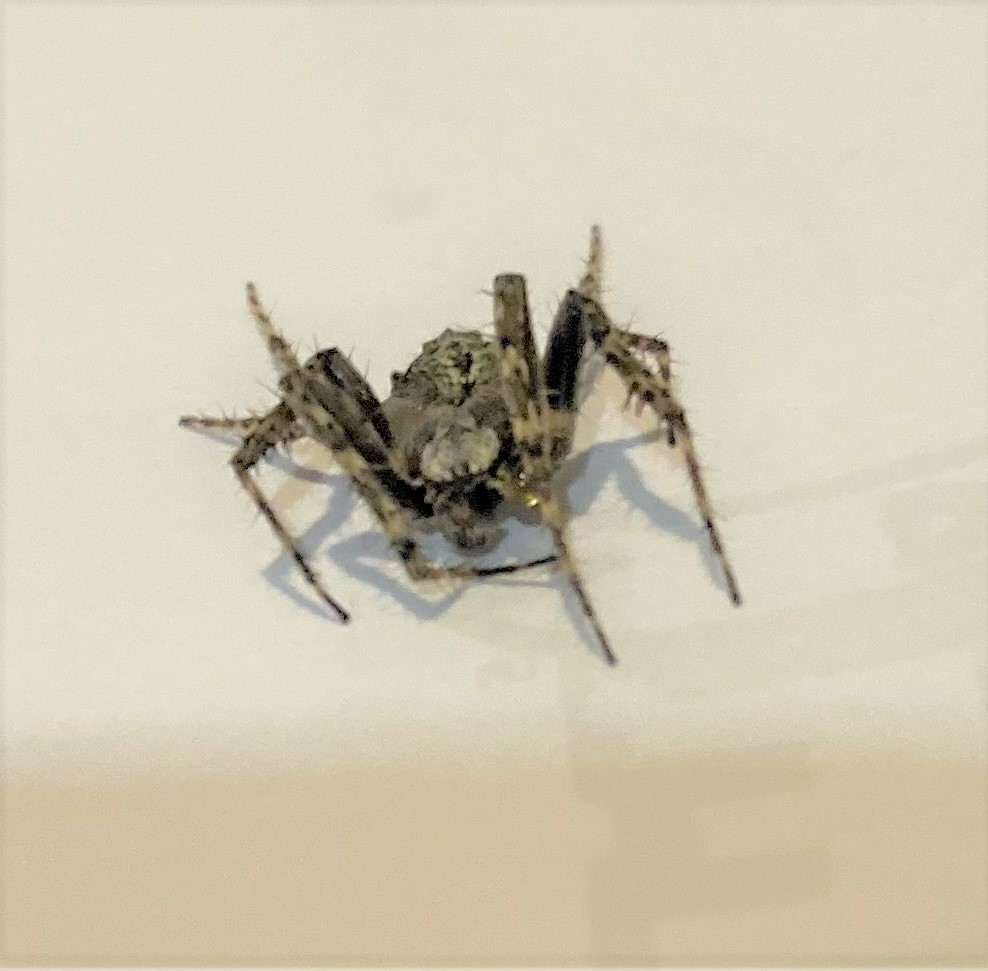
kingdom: Animalia
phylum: Arthropoda
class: Arachnida
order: Araneae
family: Araneidae
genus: Eriophora
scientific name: Eriophora pustulosa
